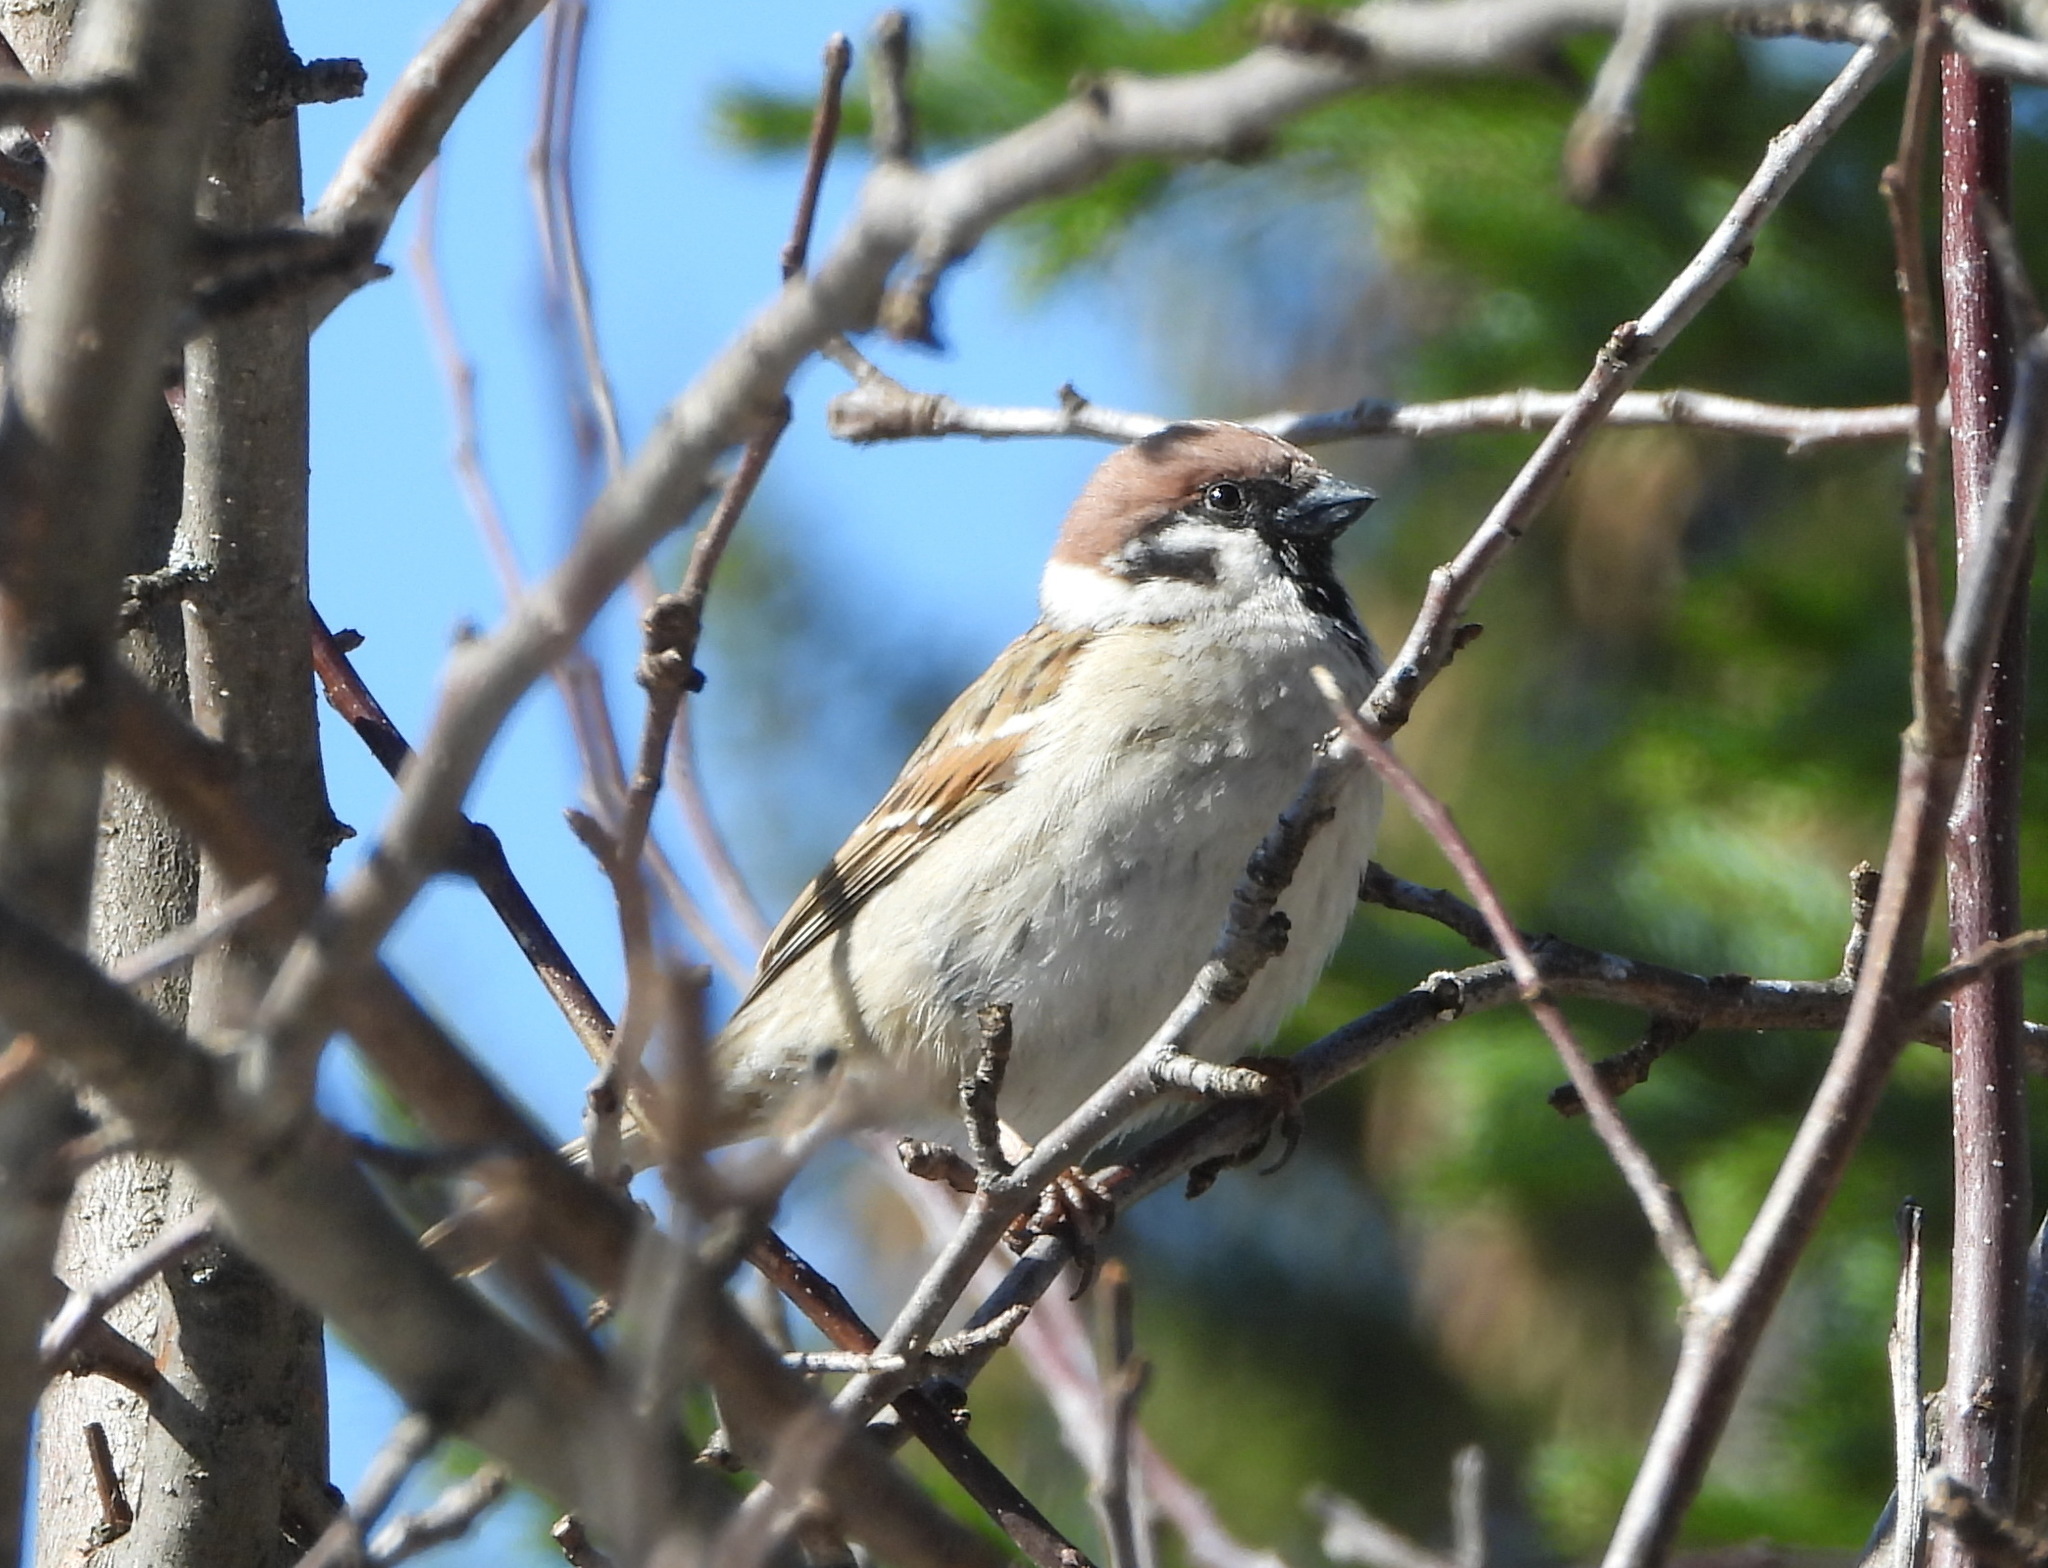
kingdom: Animalia
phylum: Chordata
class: Aves
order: Passeriformes
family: Passeridae
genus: Passer
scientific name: Passer montanus
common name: Eurasian tree sparrow
